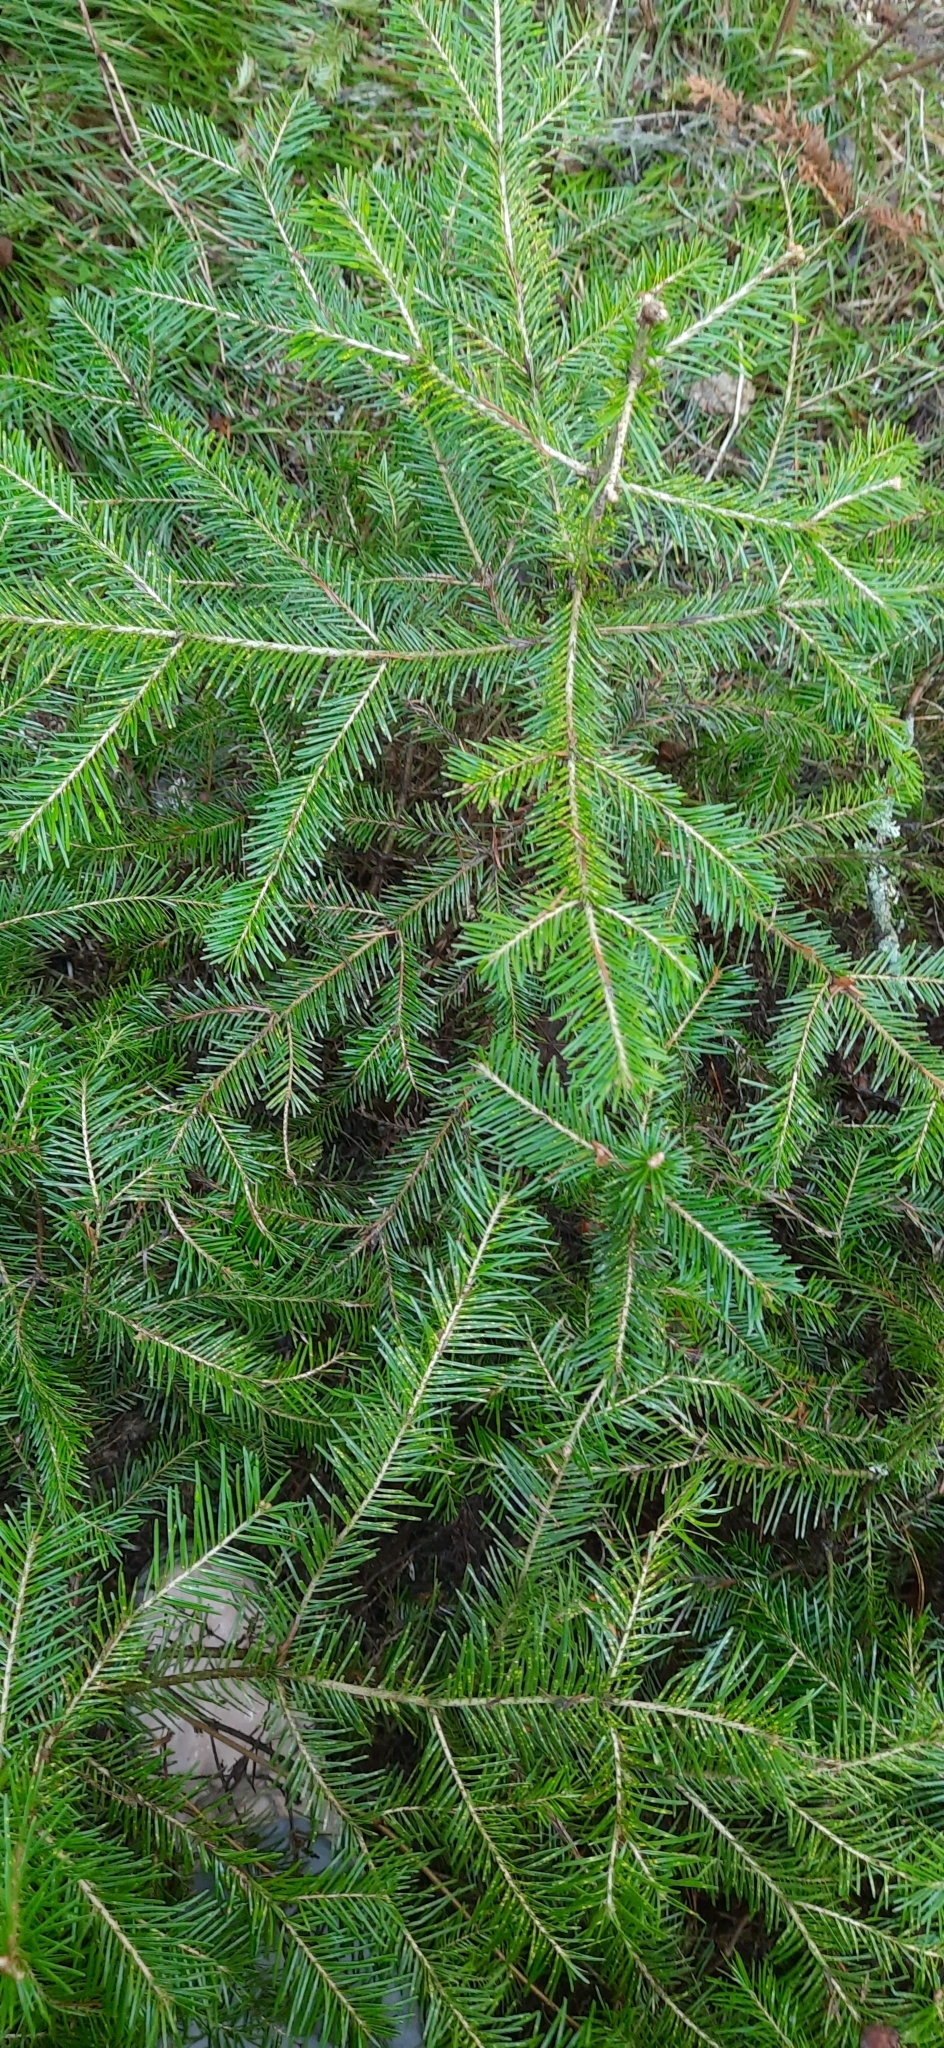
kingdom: Plantae
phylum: Tracheophyta
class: Pinopsida
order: Pinales
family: Pinaceae
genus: Abies
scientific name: Abies sibirica
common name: Siberian fir
